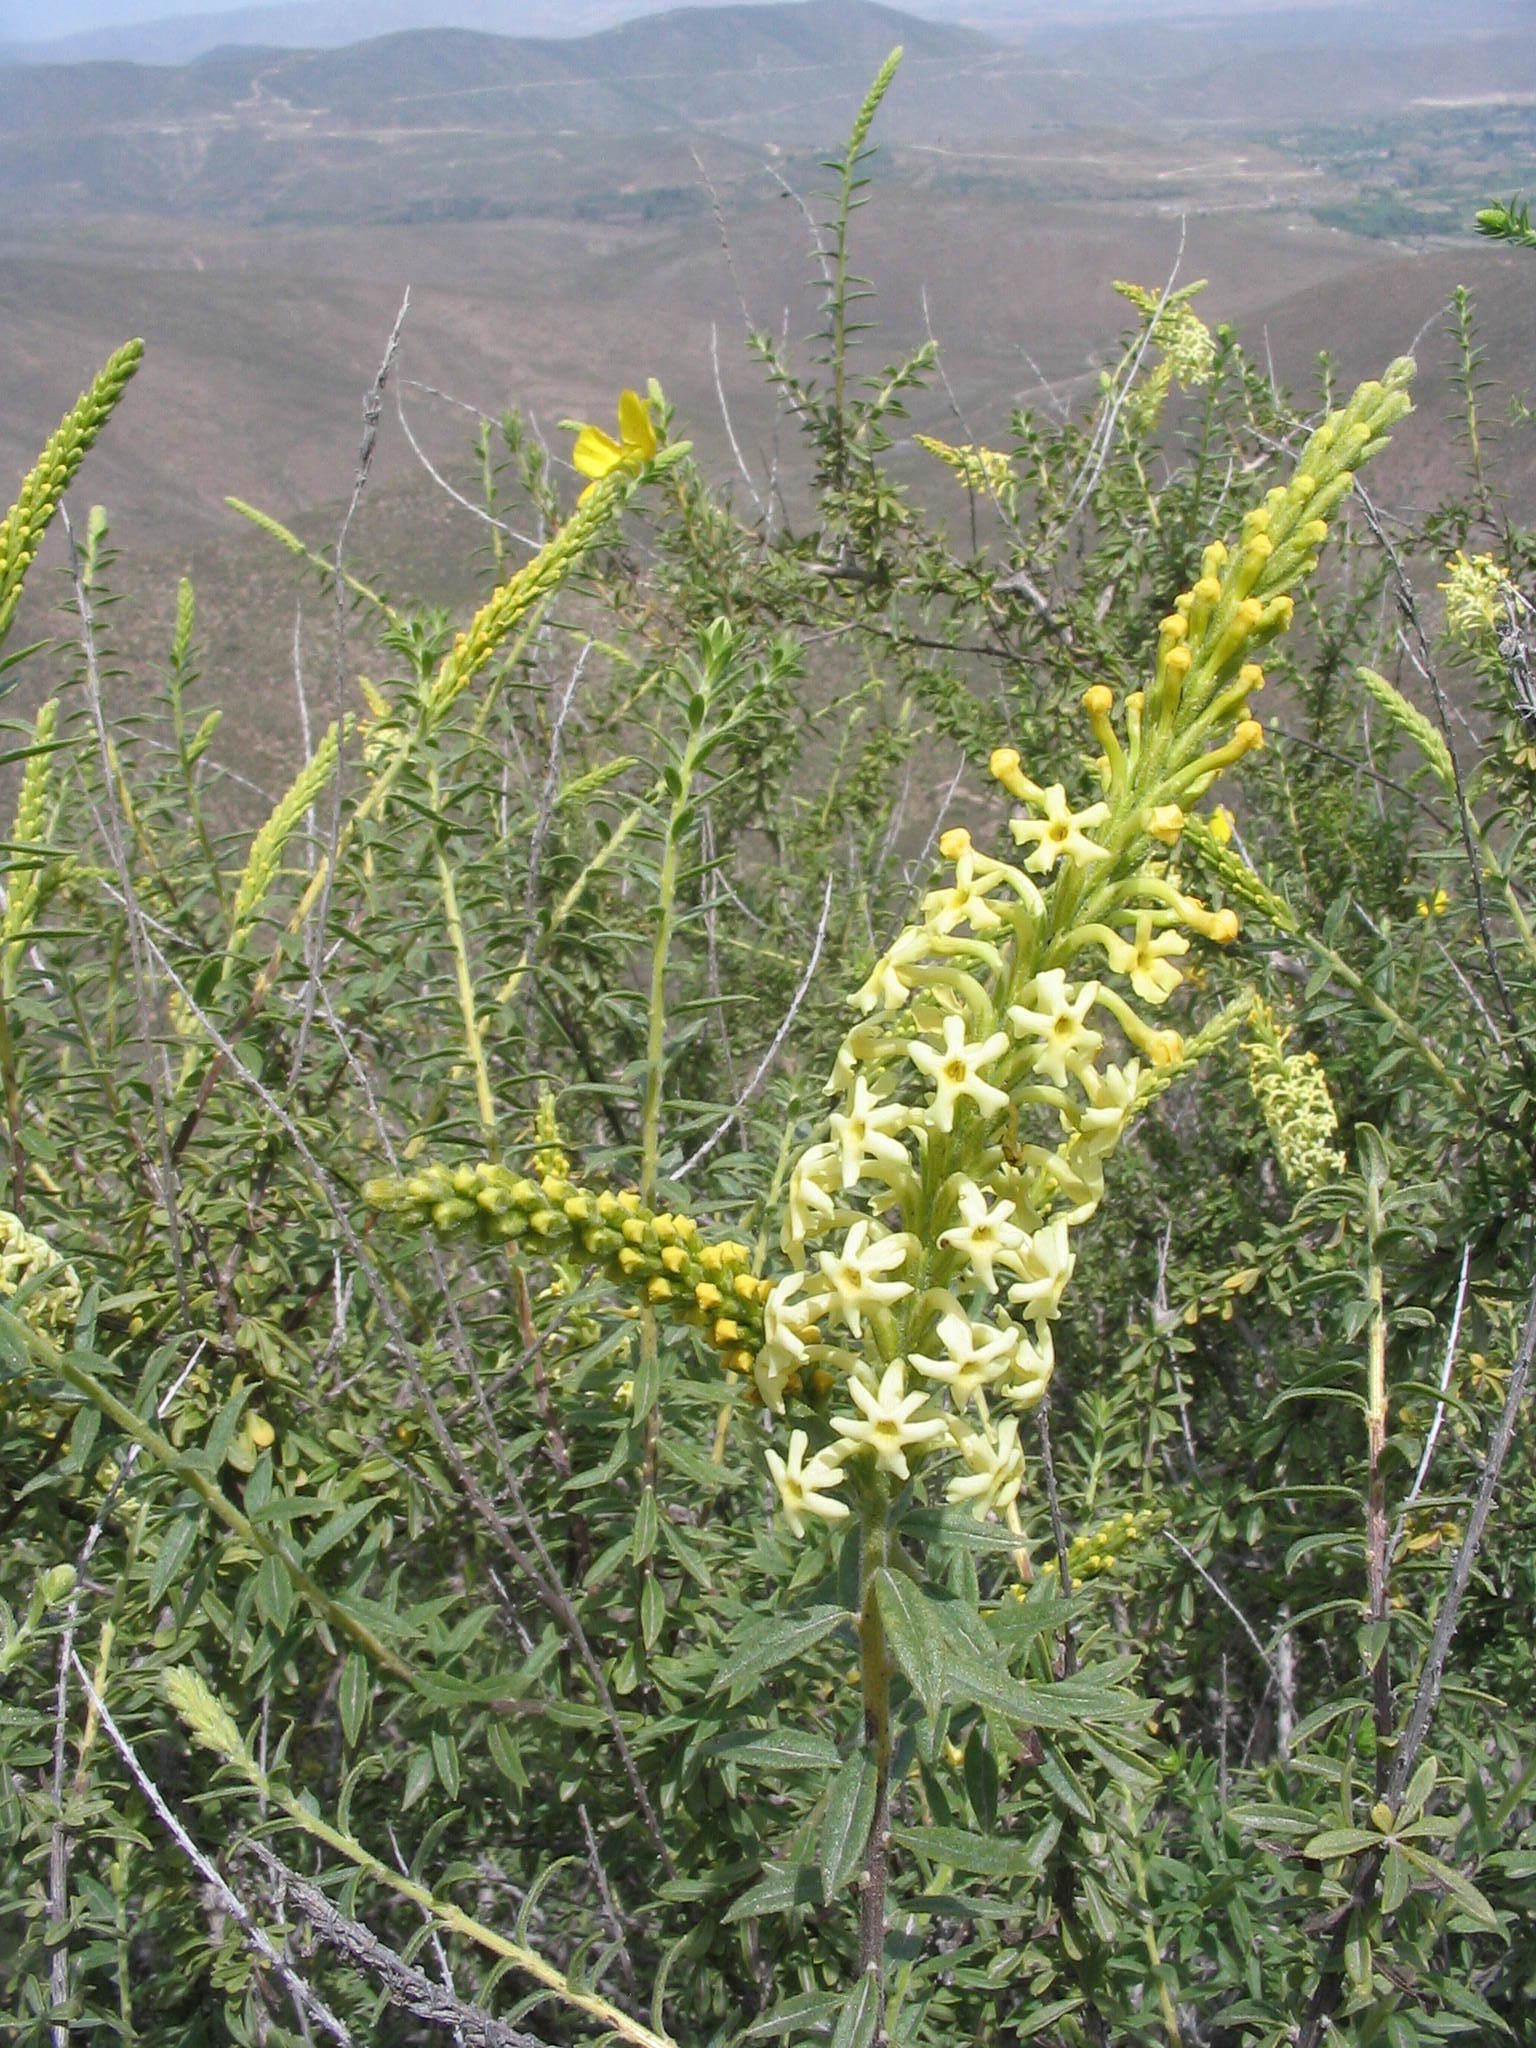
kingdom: Plantae
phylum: Tracheophyta
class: Magnoliopsida
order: Lamiales
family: Verbenaceae
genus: Mulguraea
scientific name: Mulguraea arequipensis
